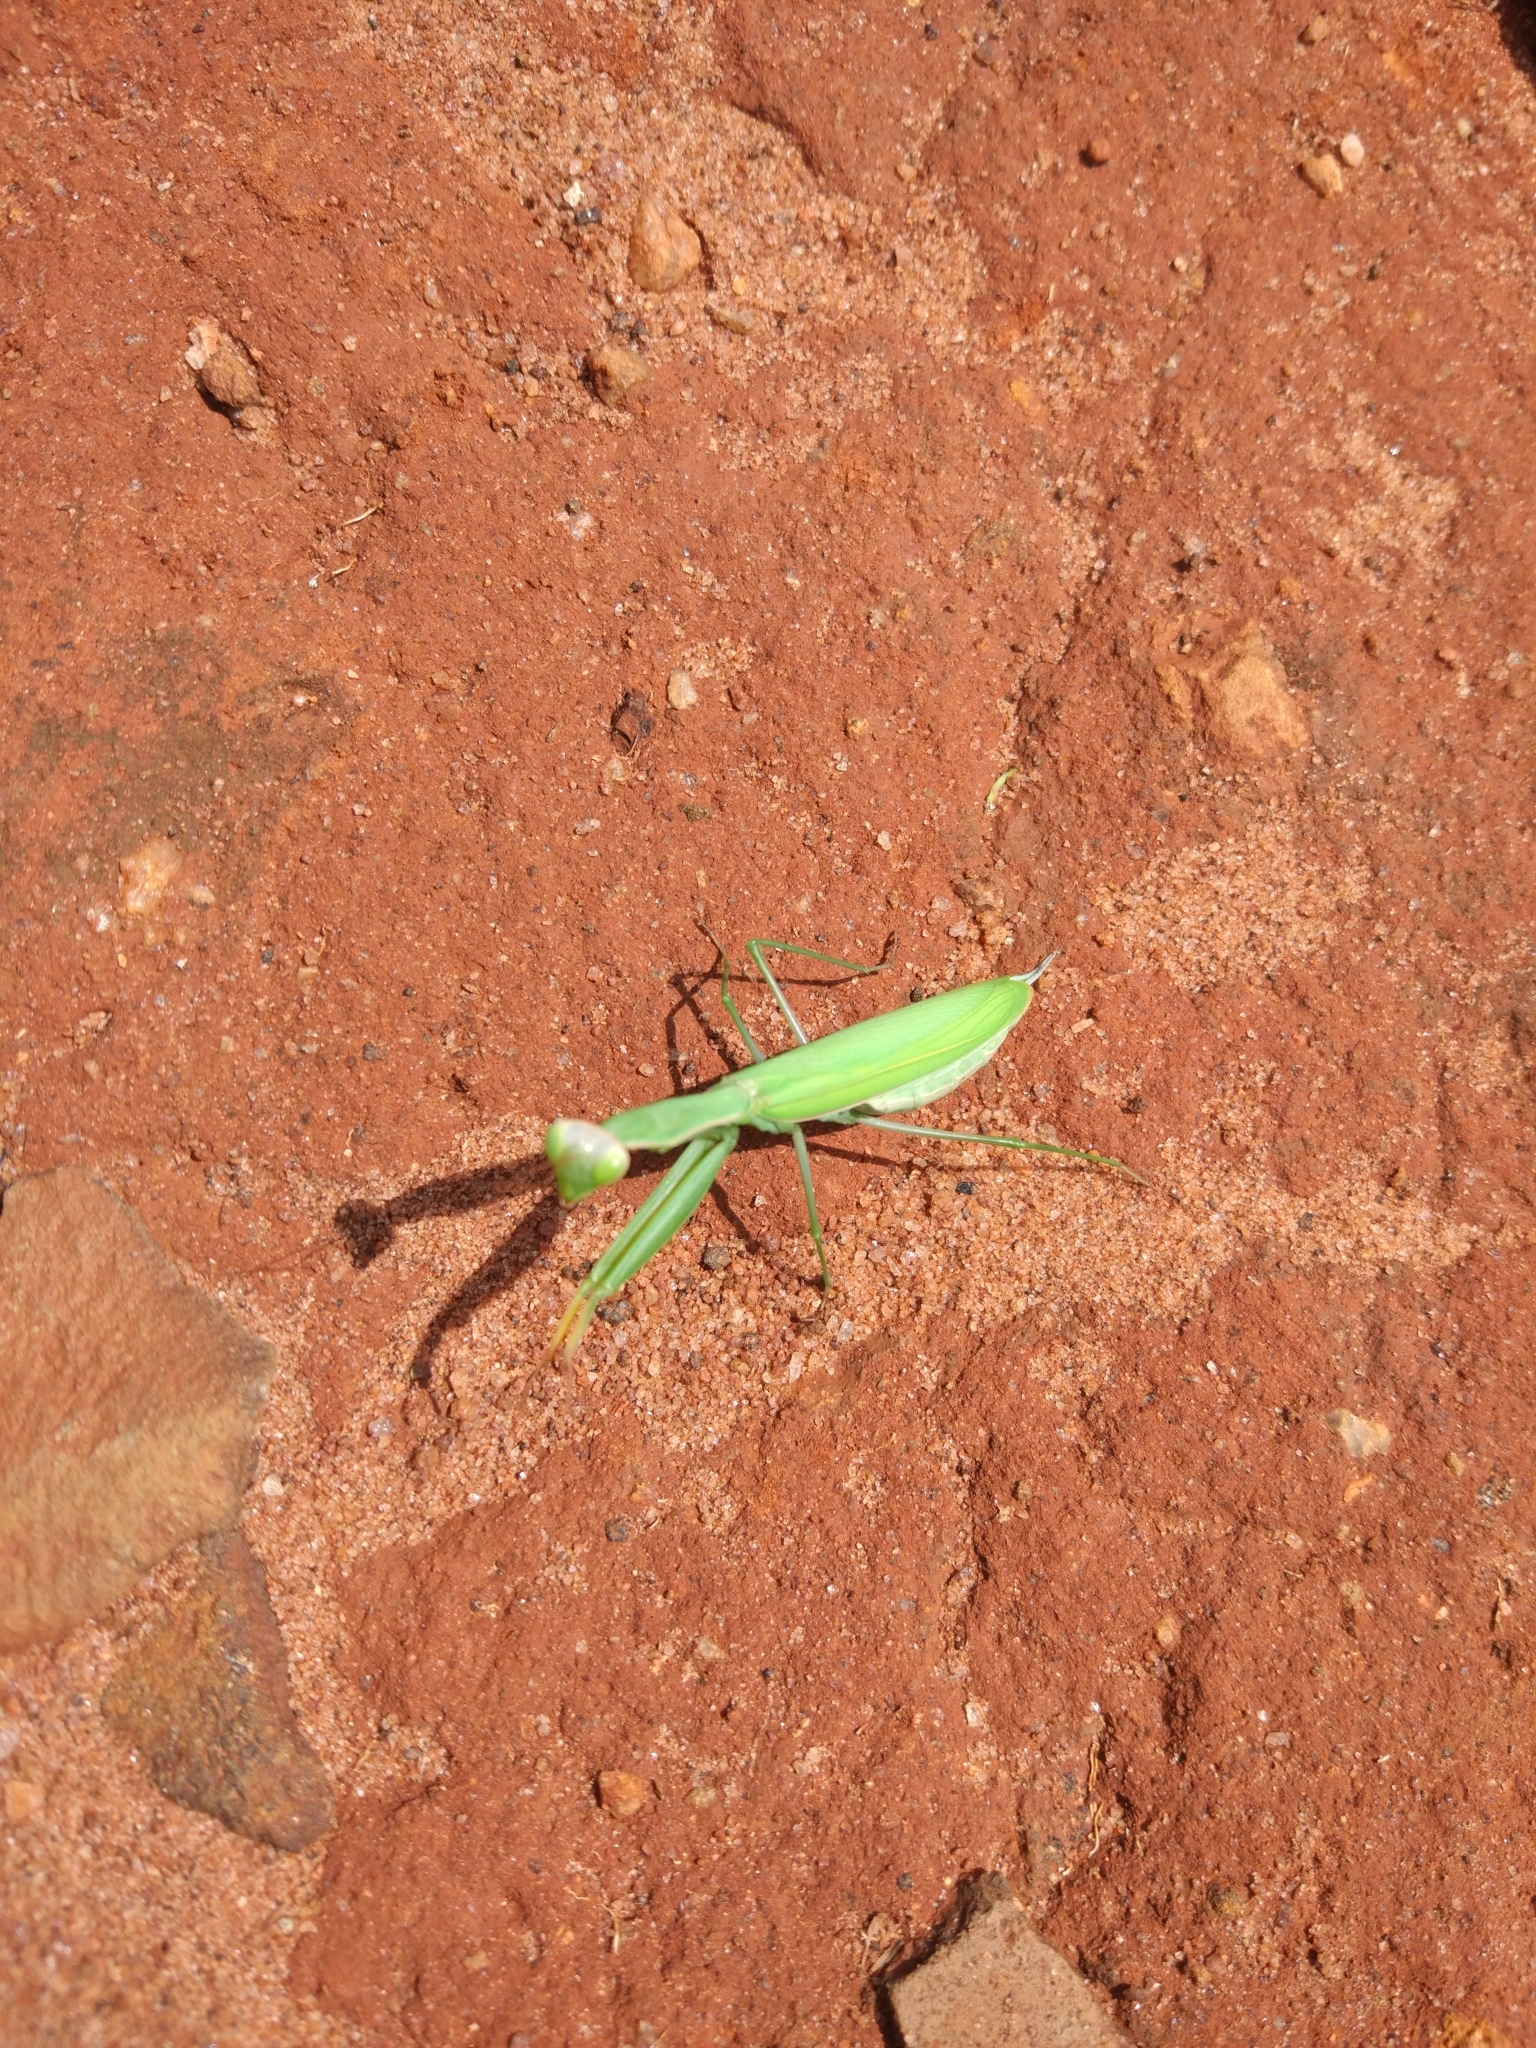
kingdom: Animalia
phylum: Arthropoda
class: Insecta
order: Mantodea
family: Mantidae
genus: Mantis
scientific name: Mantis religiosa
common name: Praying mantis
